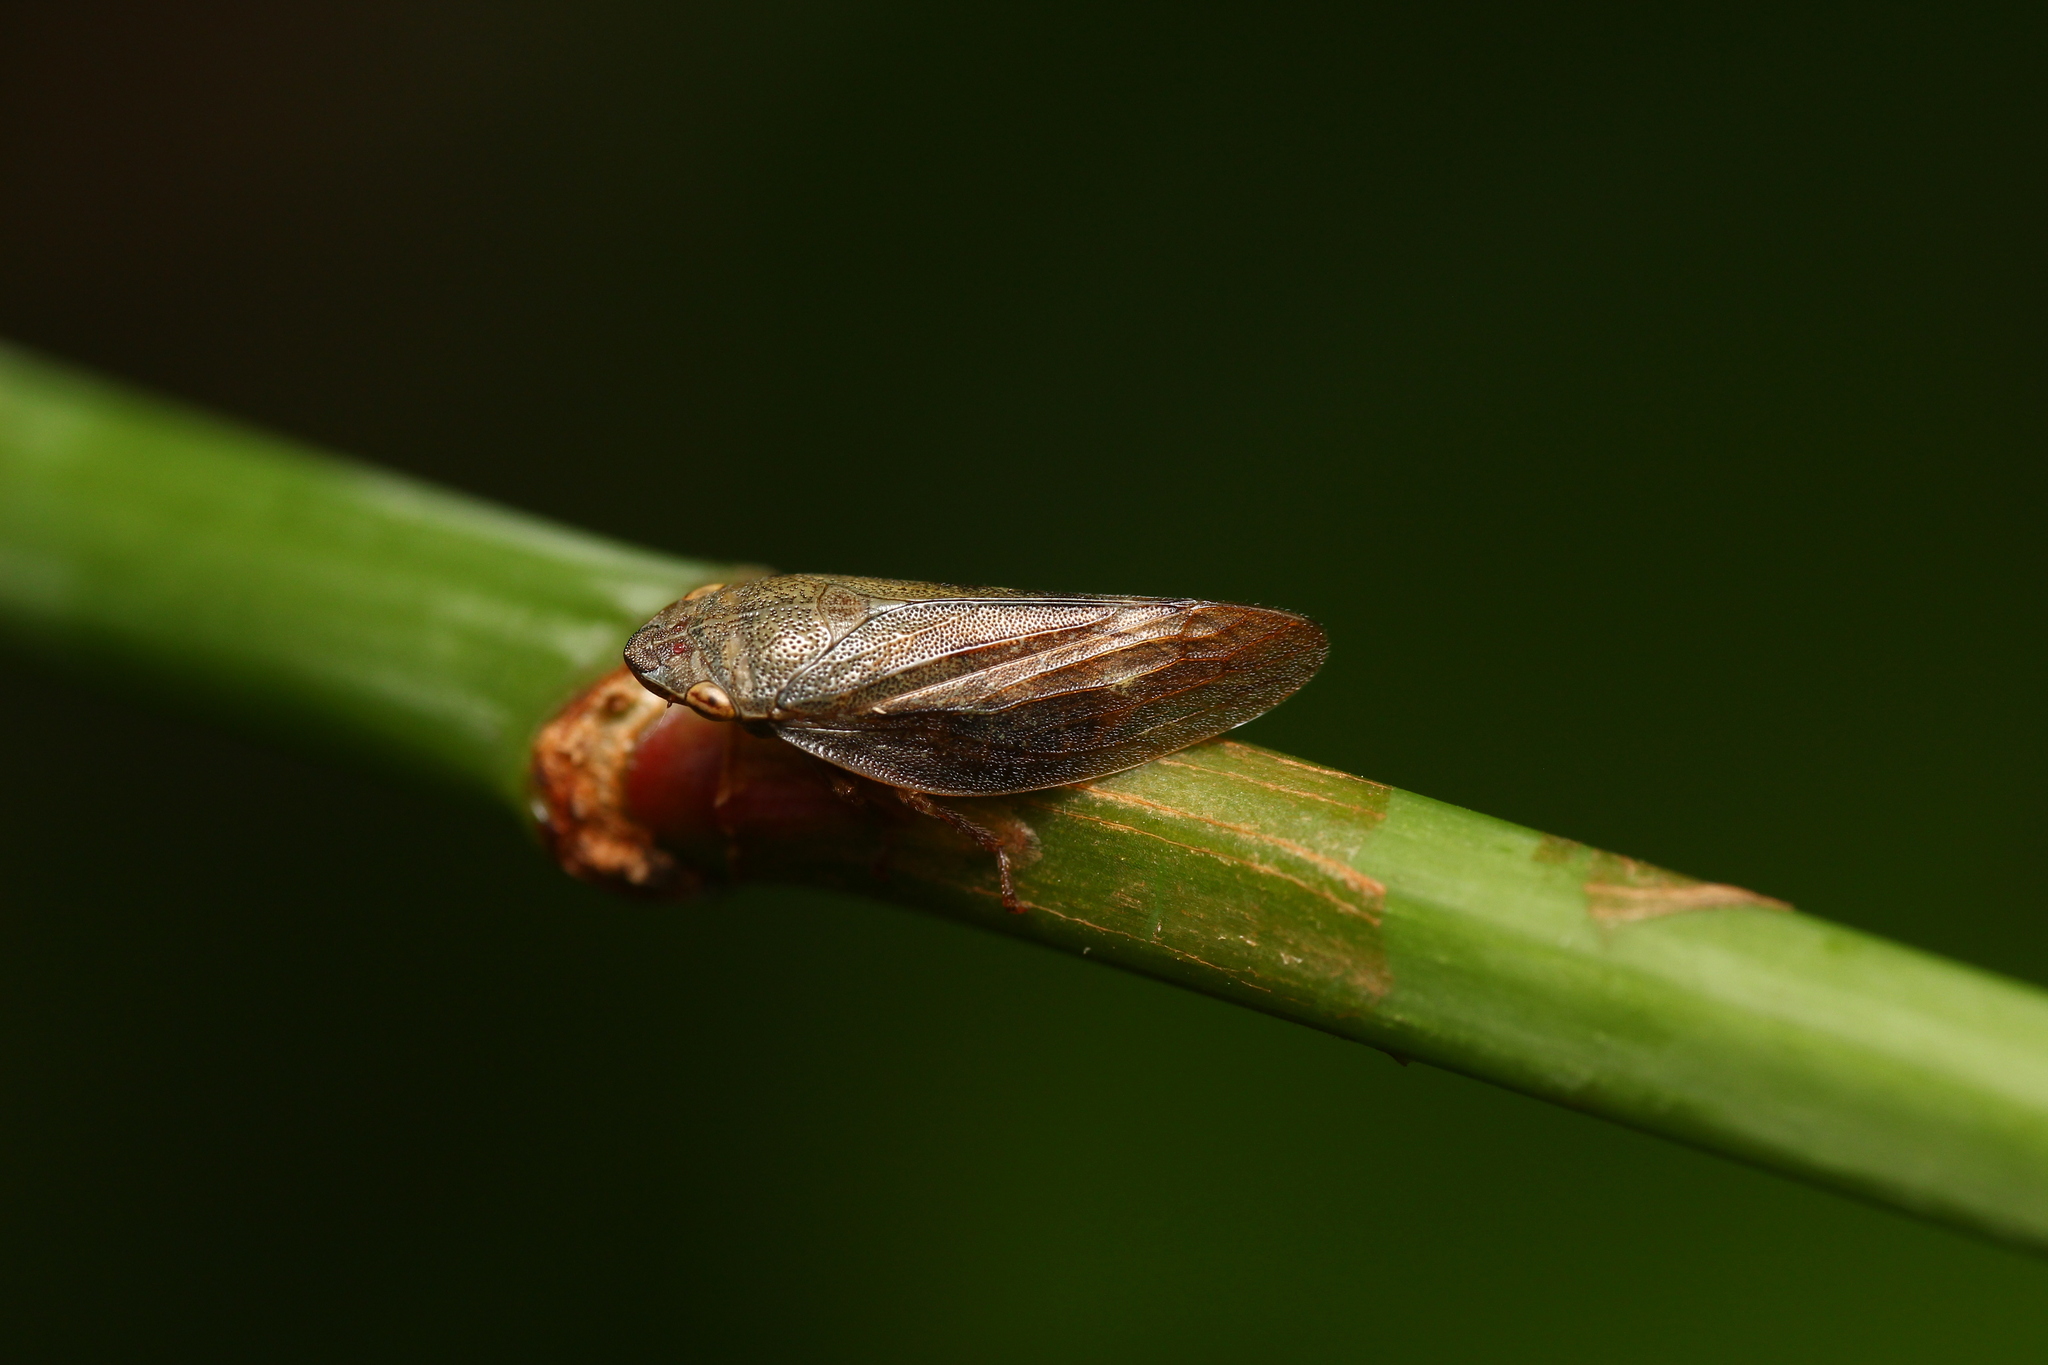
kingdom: Animalia
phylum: Arthropoda
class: Insecta
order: Hemiptera
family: Aphrophoridae
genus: Aphrophora
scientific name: Aphrophora salicina
